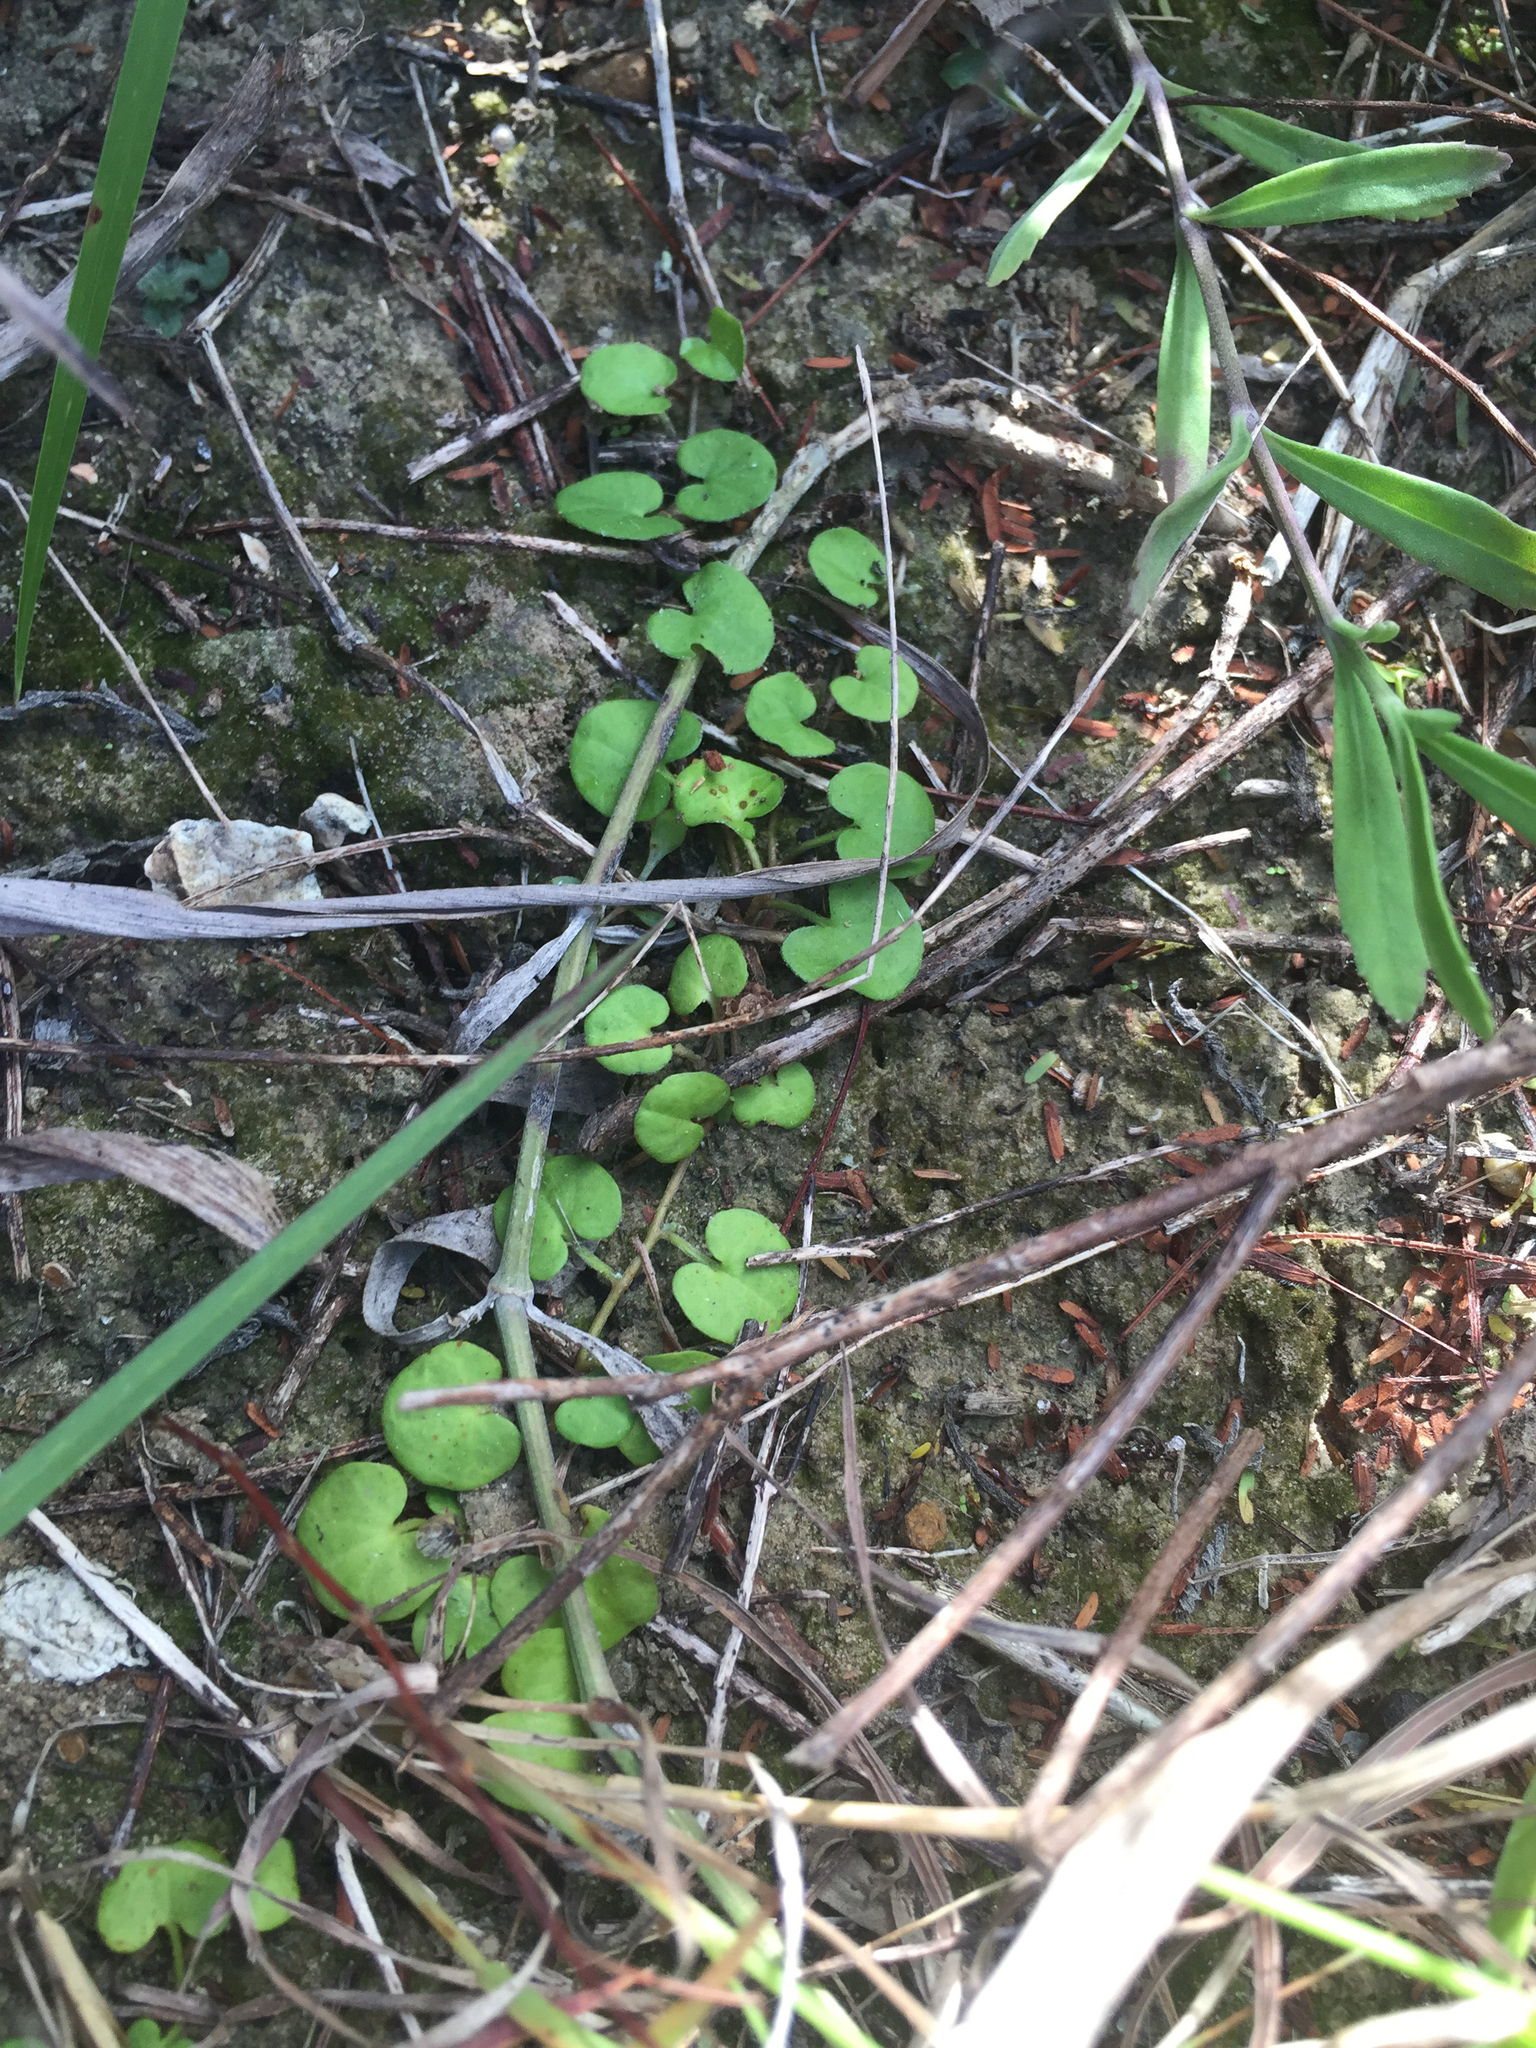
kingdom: Plantae
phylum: Tracheophyta
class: Magnoliopsida
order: Solanales
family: Convolvulaceae
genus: Dichondra
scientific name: Dichondra carolinensis
